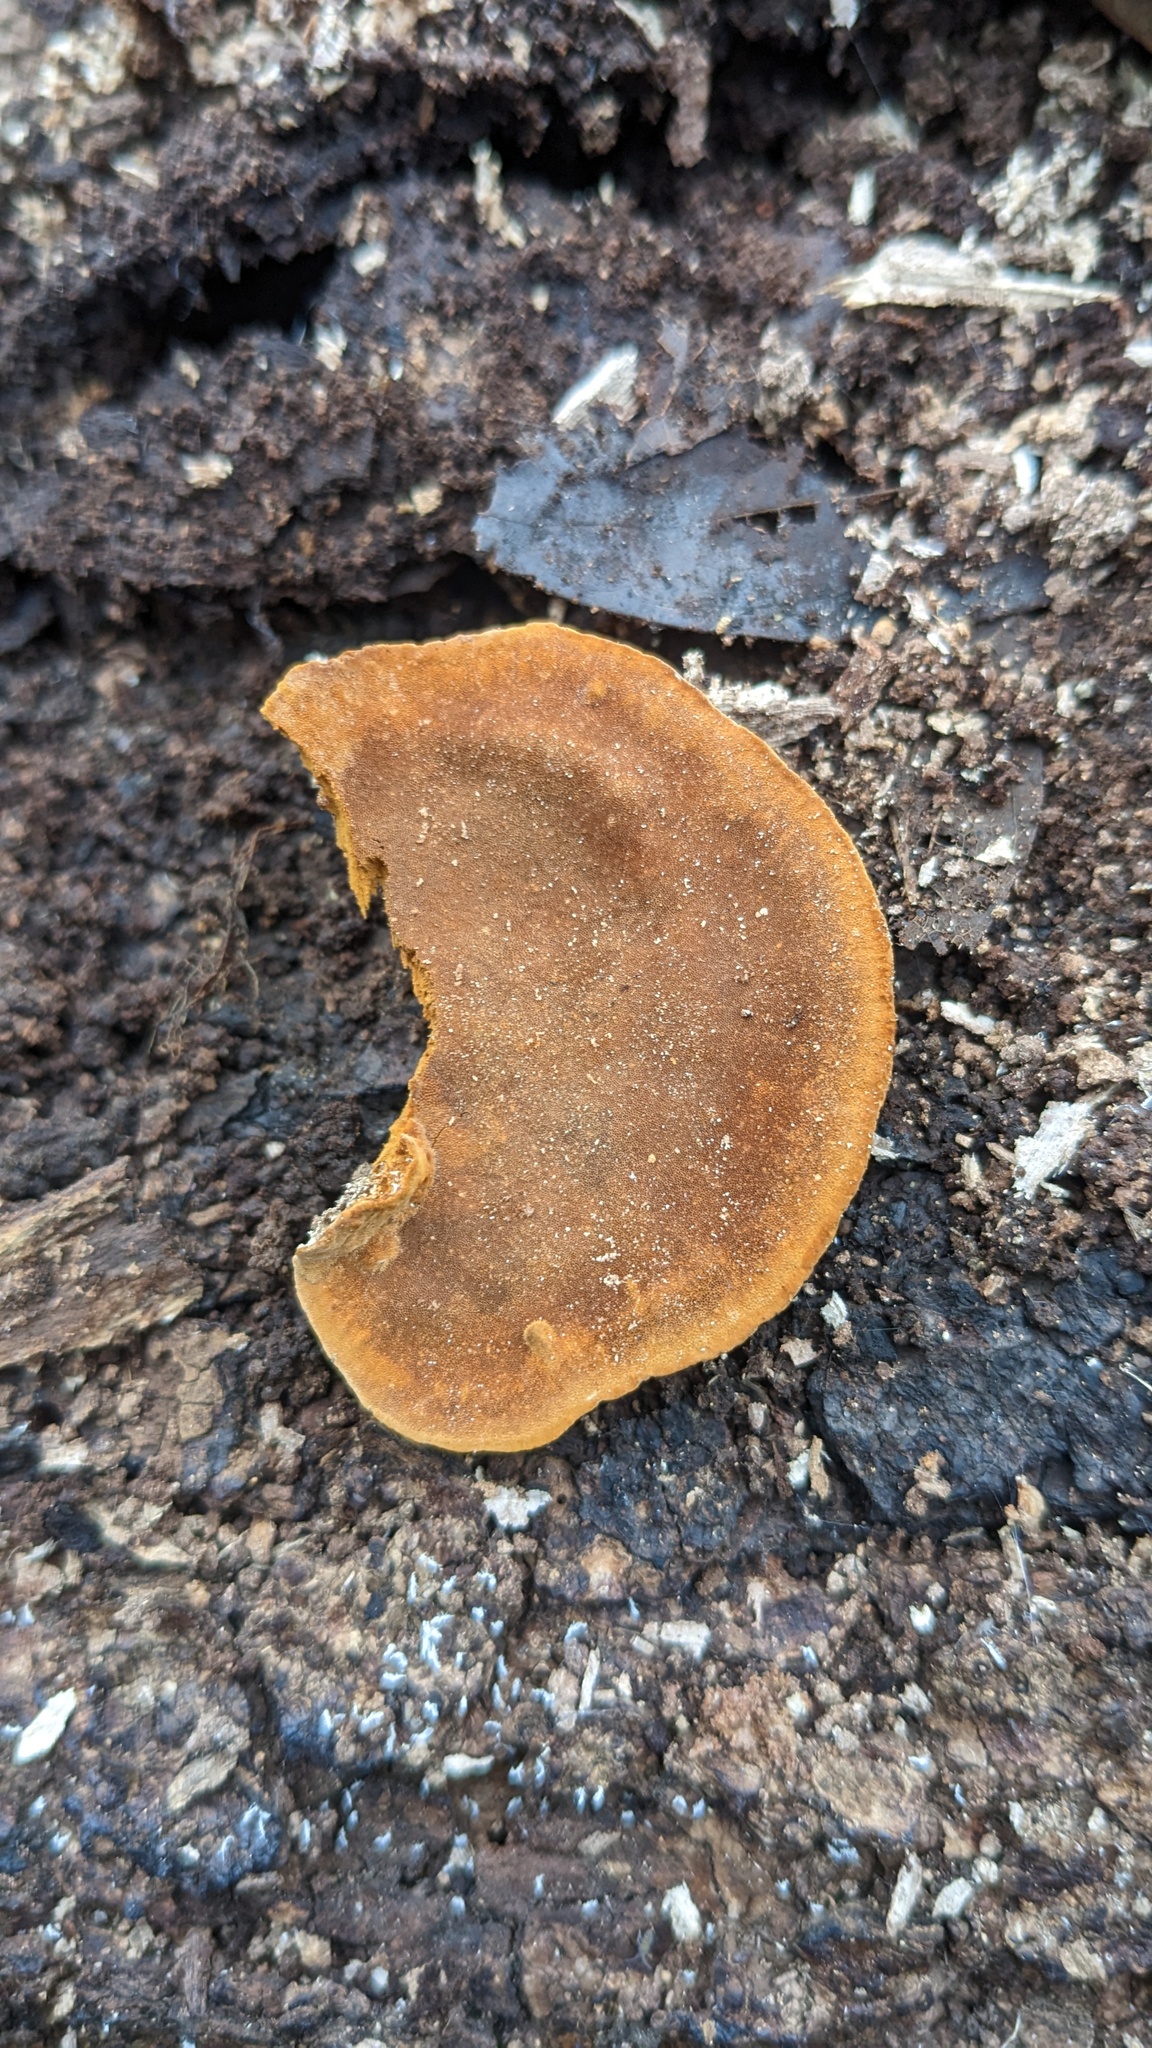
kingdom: Fungi
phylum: Basidiomycota
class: Agaricomycetes
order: Hymenochaetales
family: Hymenochaetaceae
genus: Phellinus
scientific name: Phellinus gilvus
